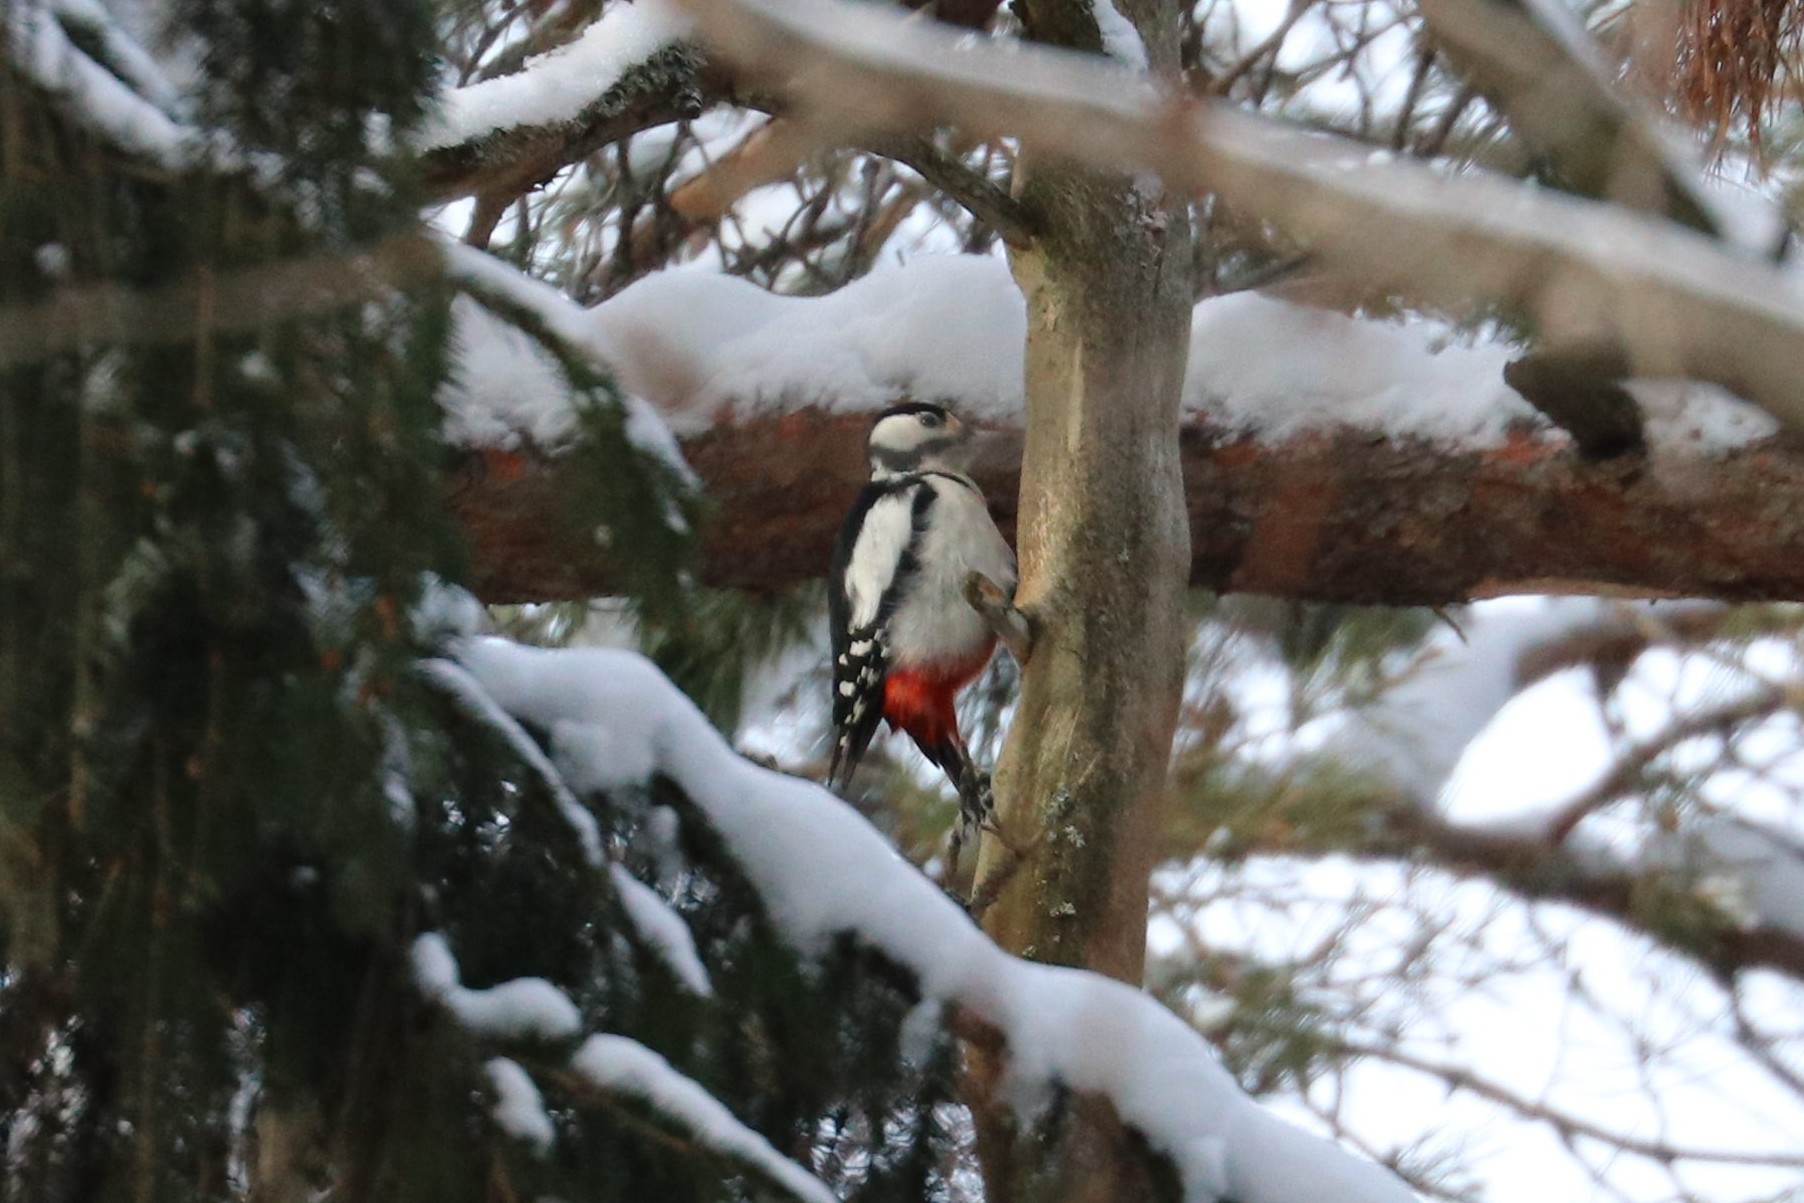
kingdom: Animalia
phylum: Chordata
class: Aves
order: Piciformes
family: Picidae
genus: Dendrocopos
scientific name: Dendrocopos major
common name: Great spotted woodpecker
